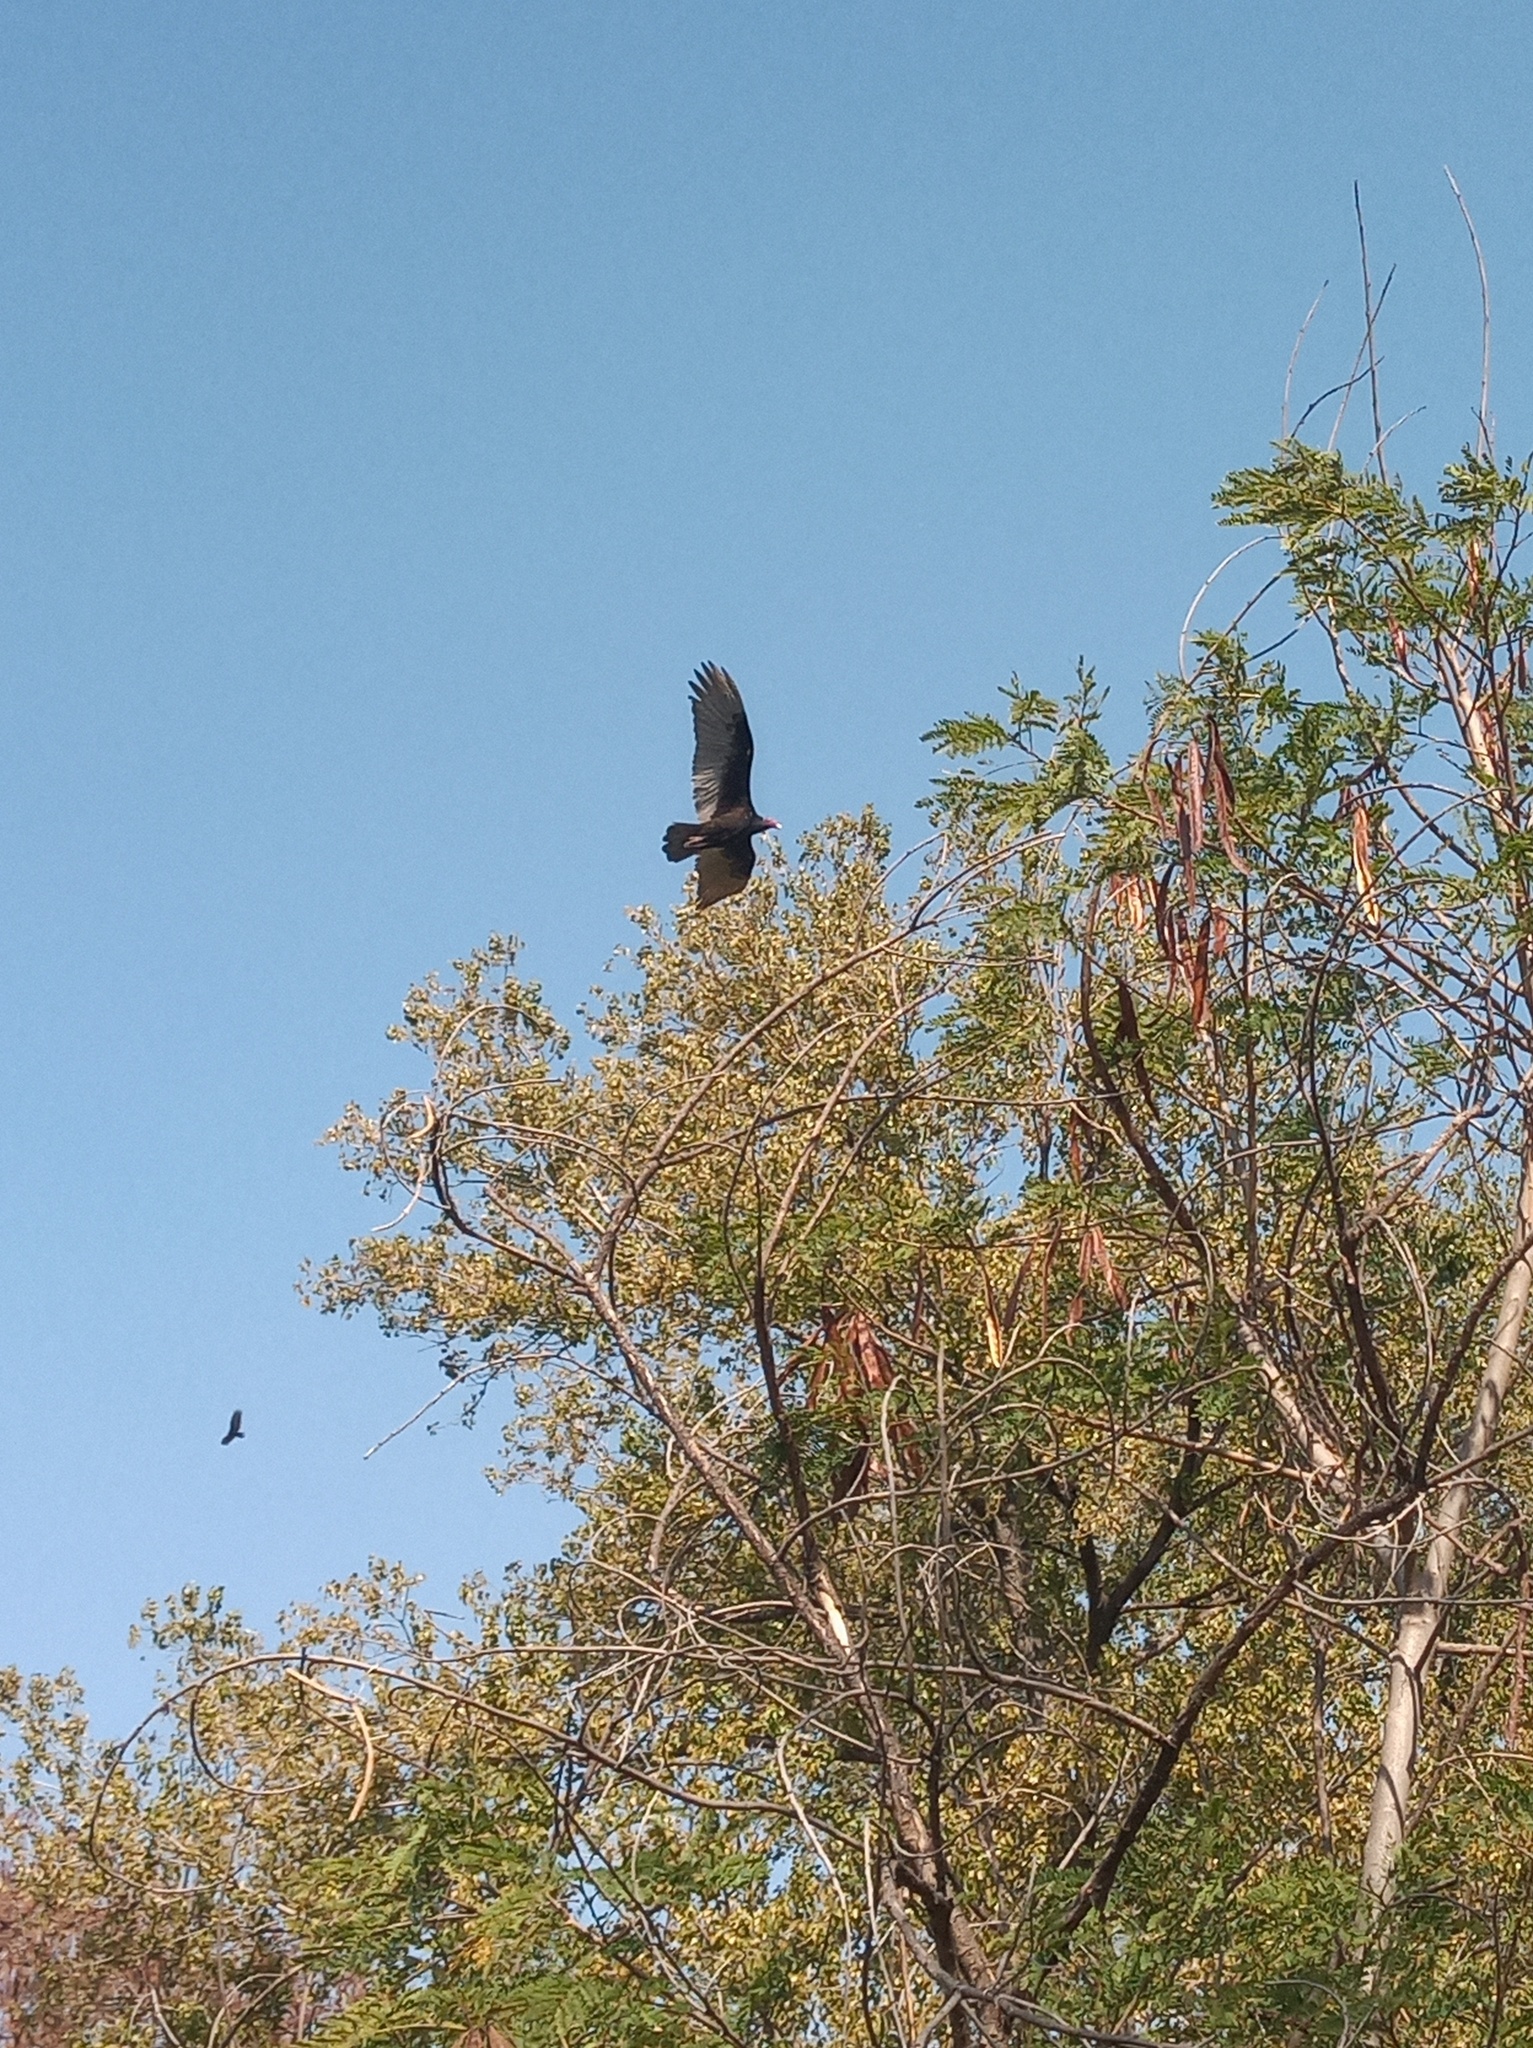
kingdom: Animalia
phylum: Chordata
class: Aves
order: Accipitriformes
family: Cathartidae
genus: Cathartes
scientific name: Cathartes aura
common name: Turkey vulture
